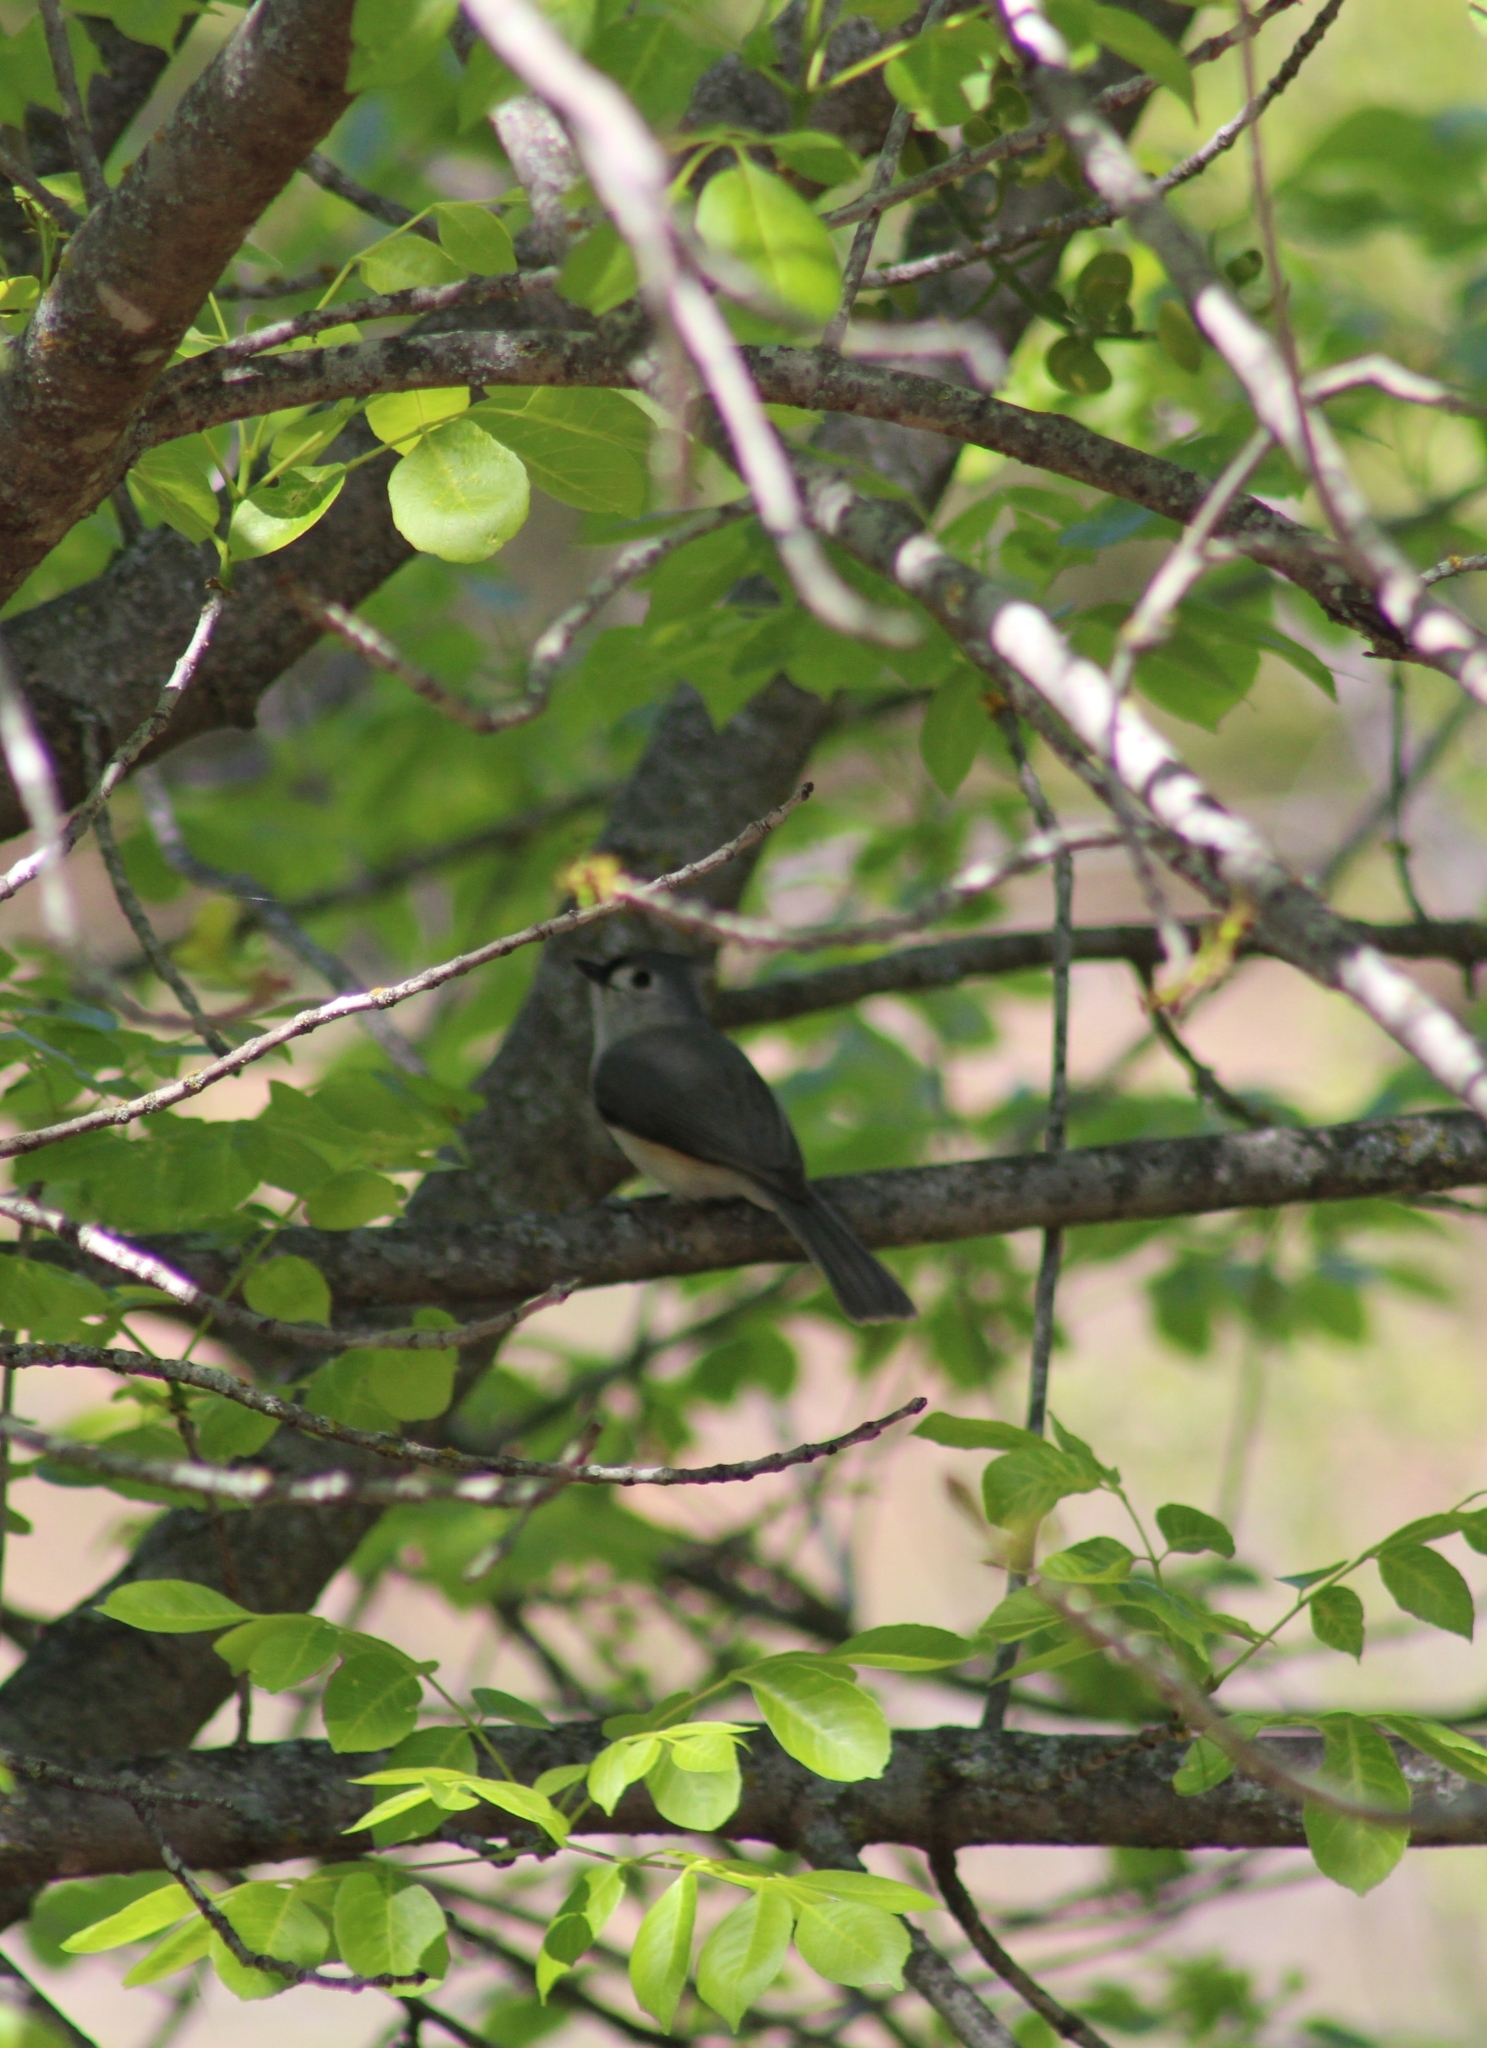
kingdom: Animalia
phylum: Chordata
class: Aves
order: Passeriformes
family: Paridae
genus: Baeolophus
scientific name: Baeolophus bicolor
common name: Tufted titmouse
